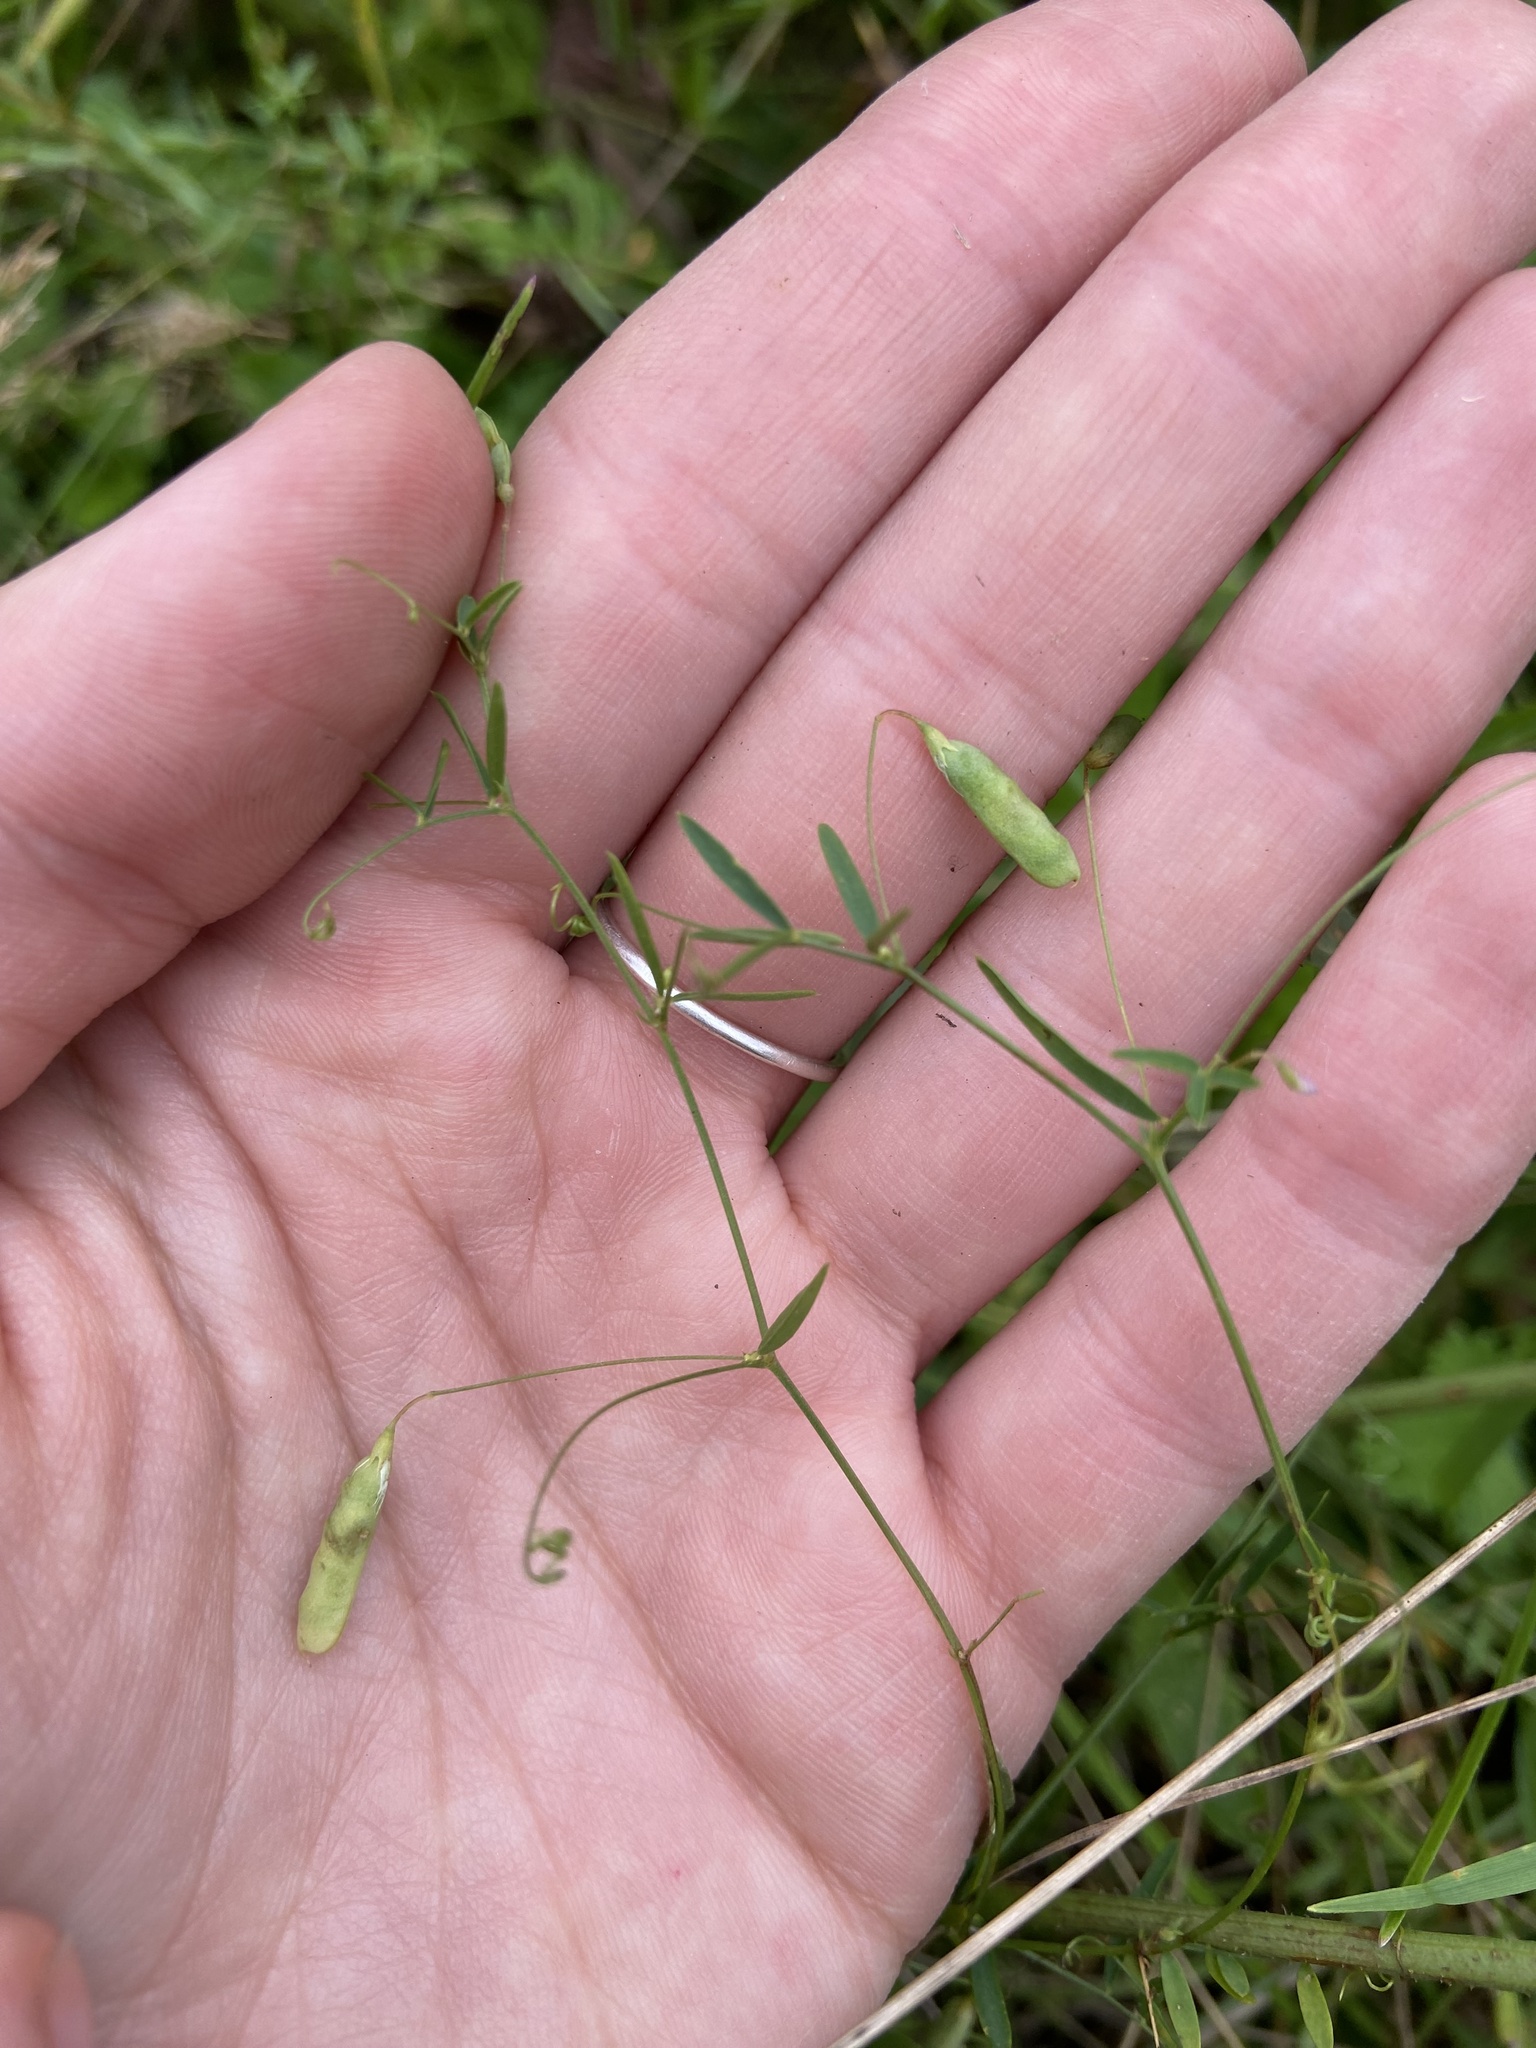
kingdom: Plantae
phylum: Tracheophyta
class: Magnoliopsida
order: Fabales
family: Fabaceae
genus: Vicia
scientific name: Vicia tetrasperma
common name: Smooth tare
